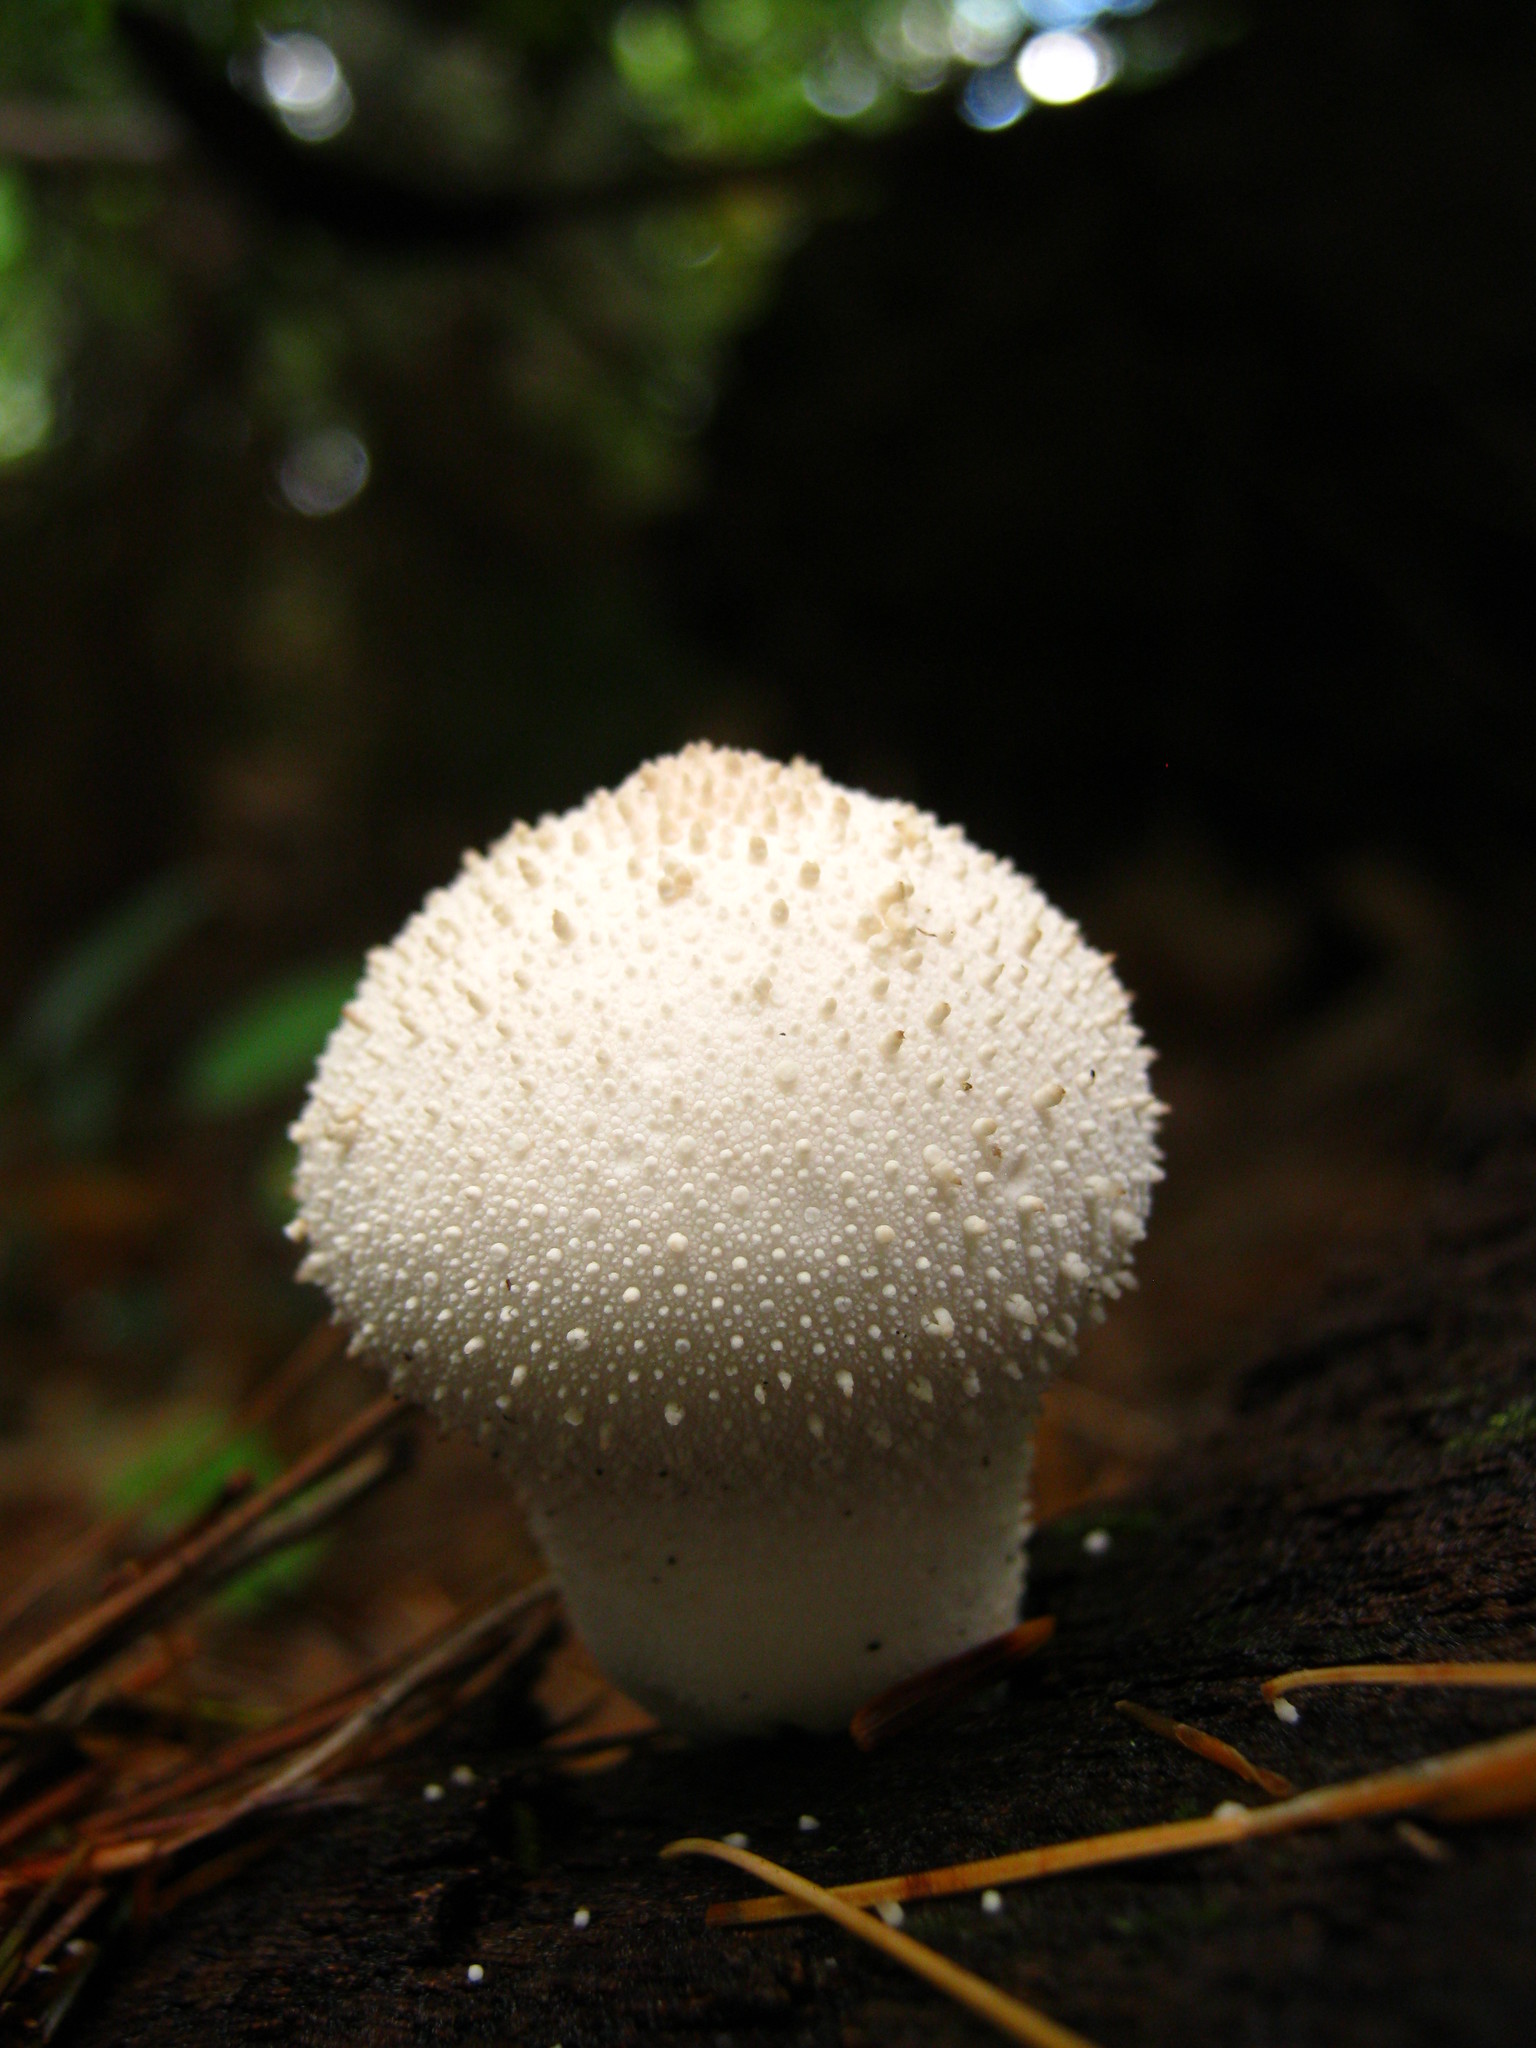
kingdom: Fungi
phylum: Basidiomycota
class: Agaricomycetes
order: Agaricales
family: Lycoperdaceae
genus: Lycoperdon
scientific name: Lycoperdon perlatum
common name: Common puffball
